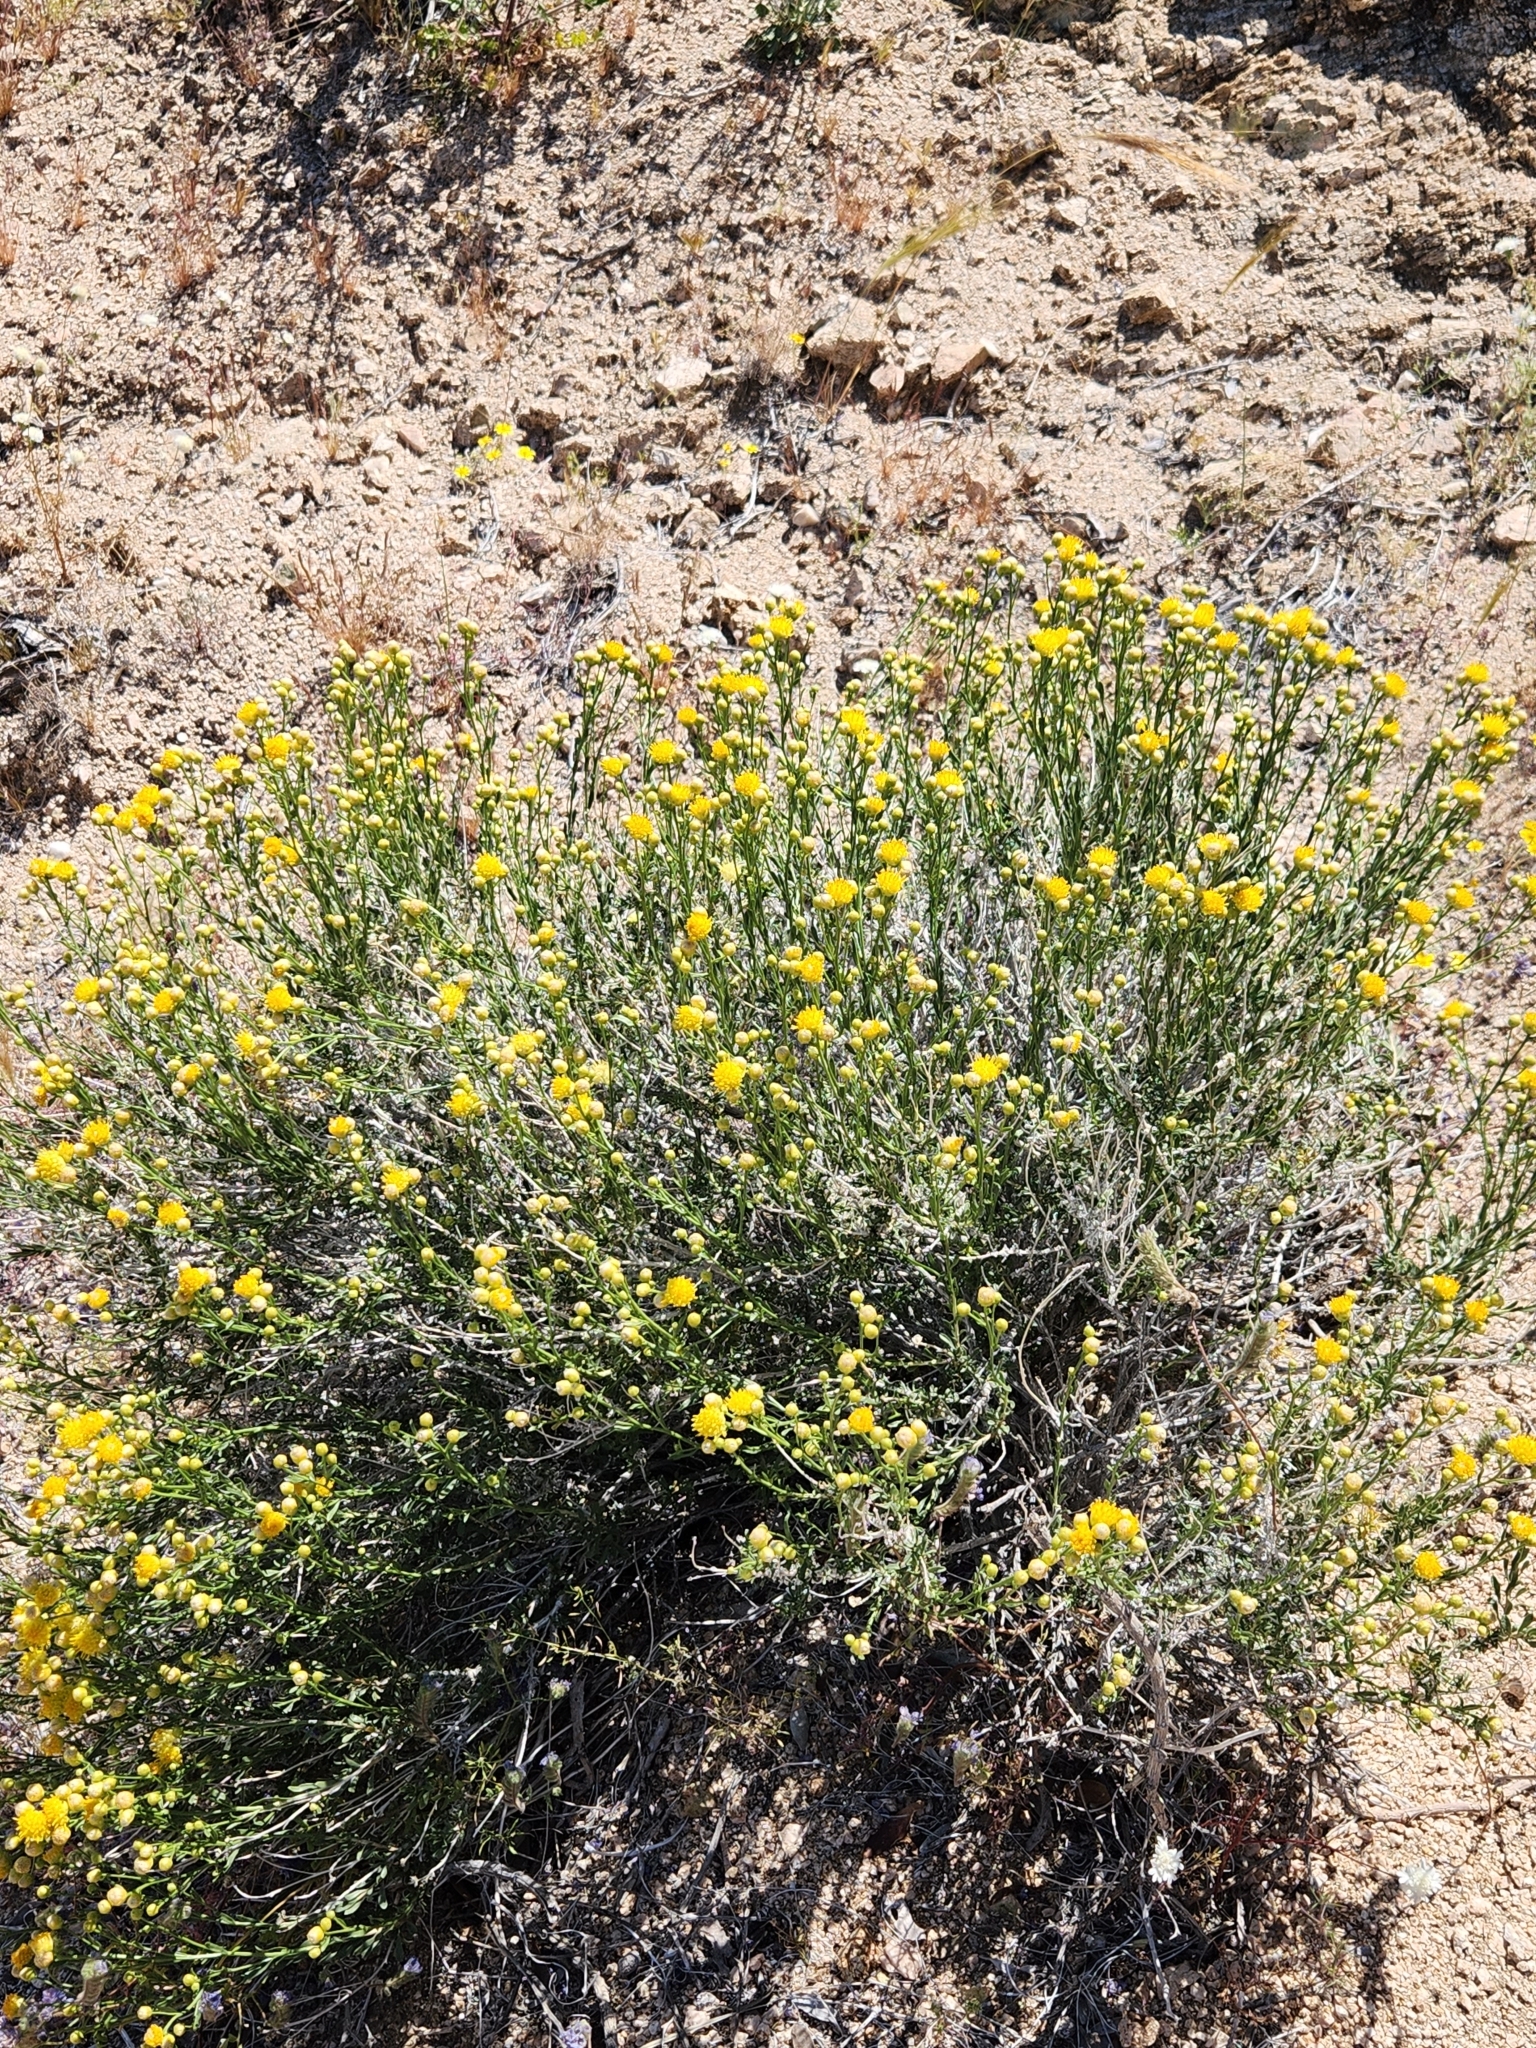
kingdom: Plantae
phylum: Tracheophyta
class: Magnoliopsida
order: Asterales
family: Asteraceae
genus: Acamptopappus
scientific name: Acamptopappus sphaerocephalus
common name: Goldenhead
